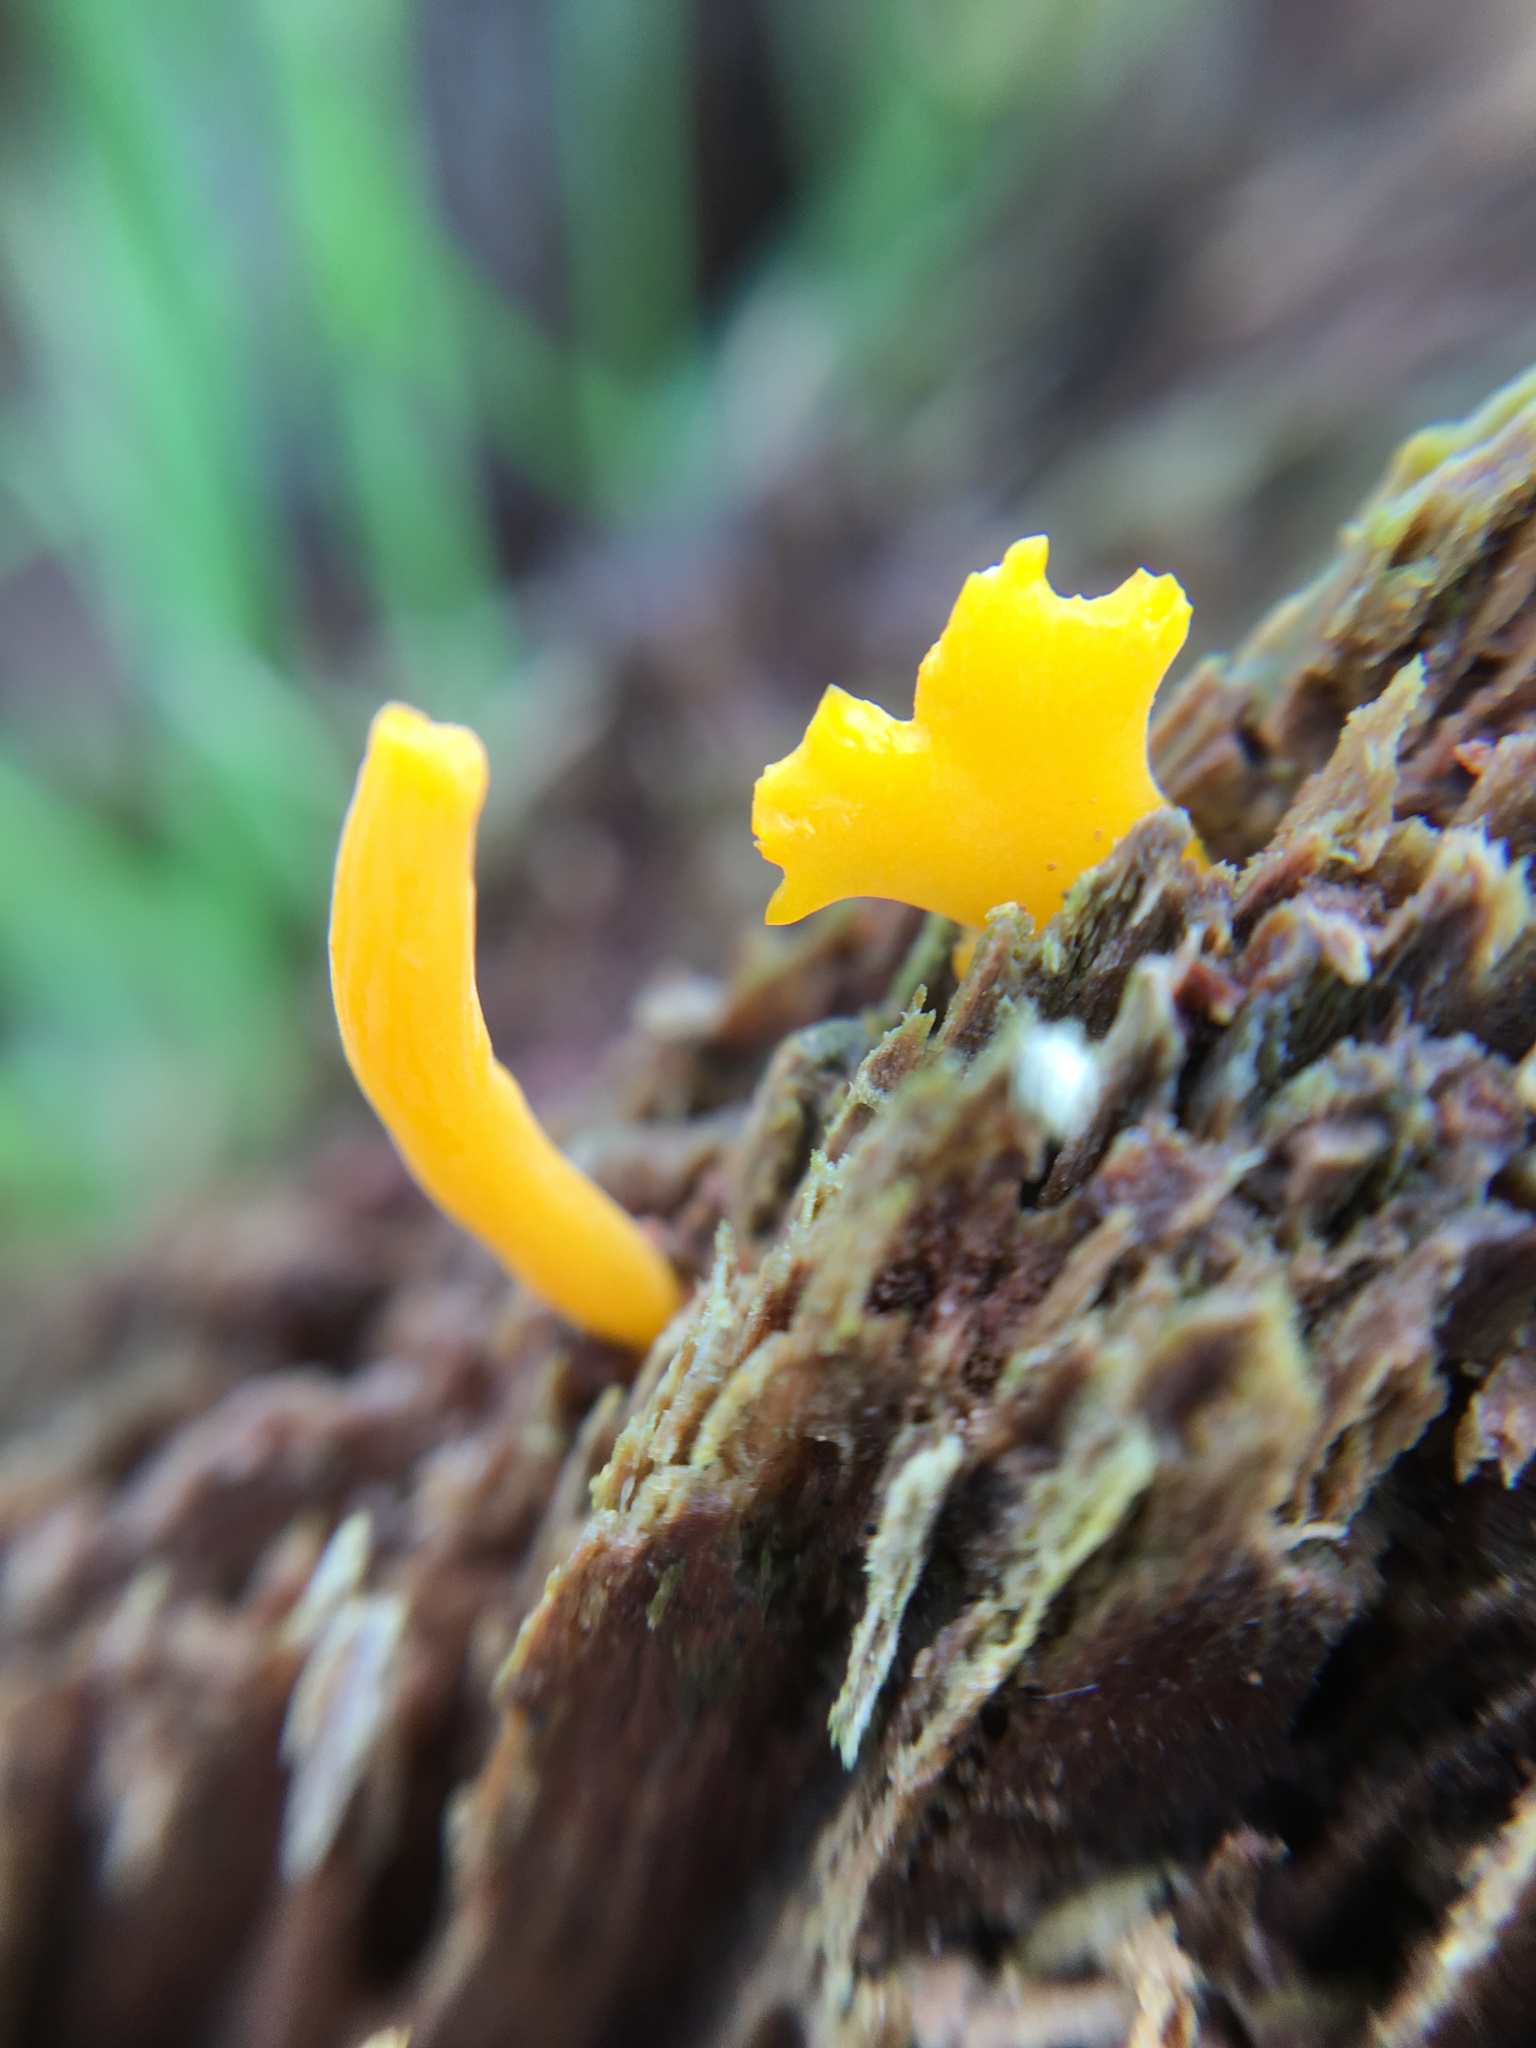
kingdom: Fungi
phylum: Basidiomycota
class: Dacrymycetes
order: Dacrymycetales
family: Dacrymycetaceae
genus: Calocera
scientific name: Calocera cornea
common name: Small stagshorn
